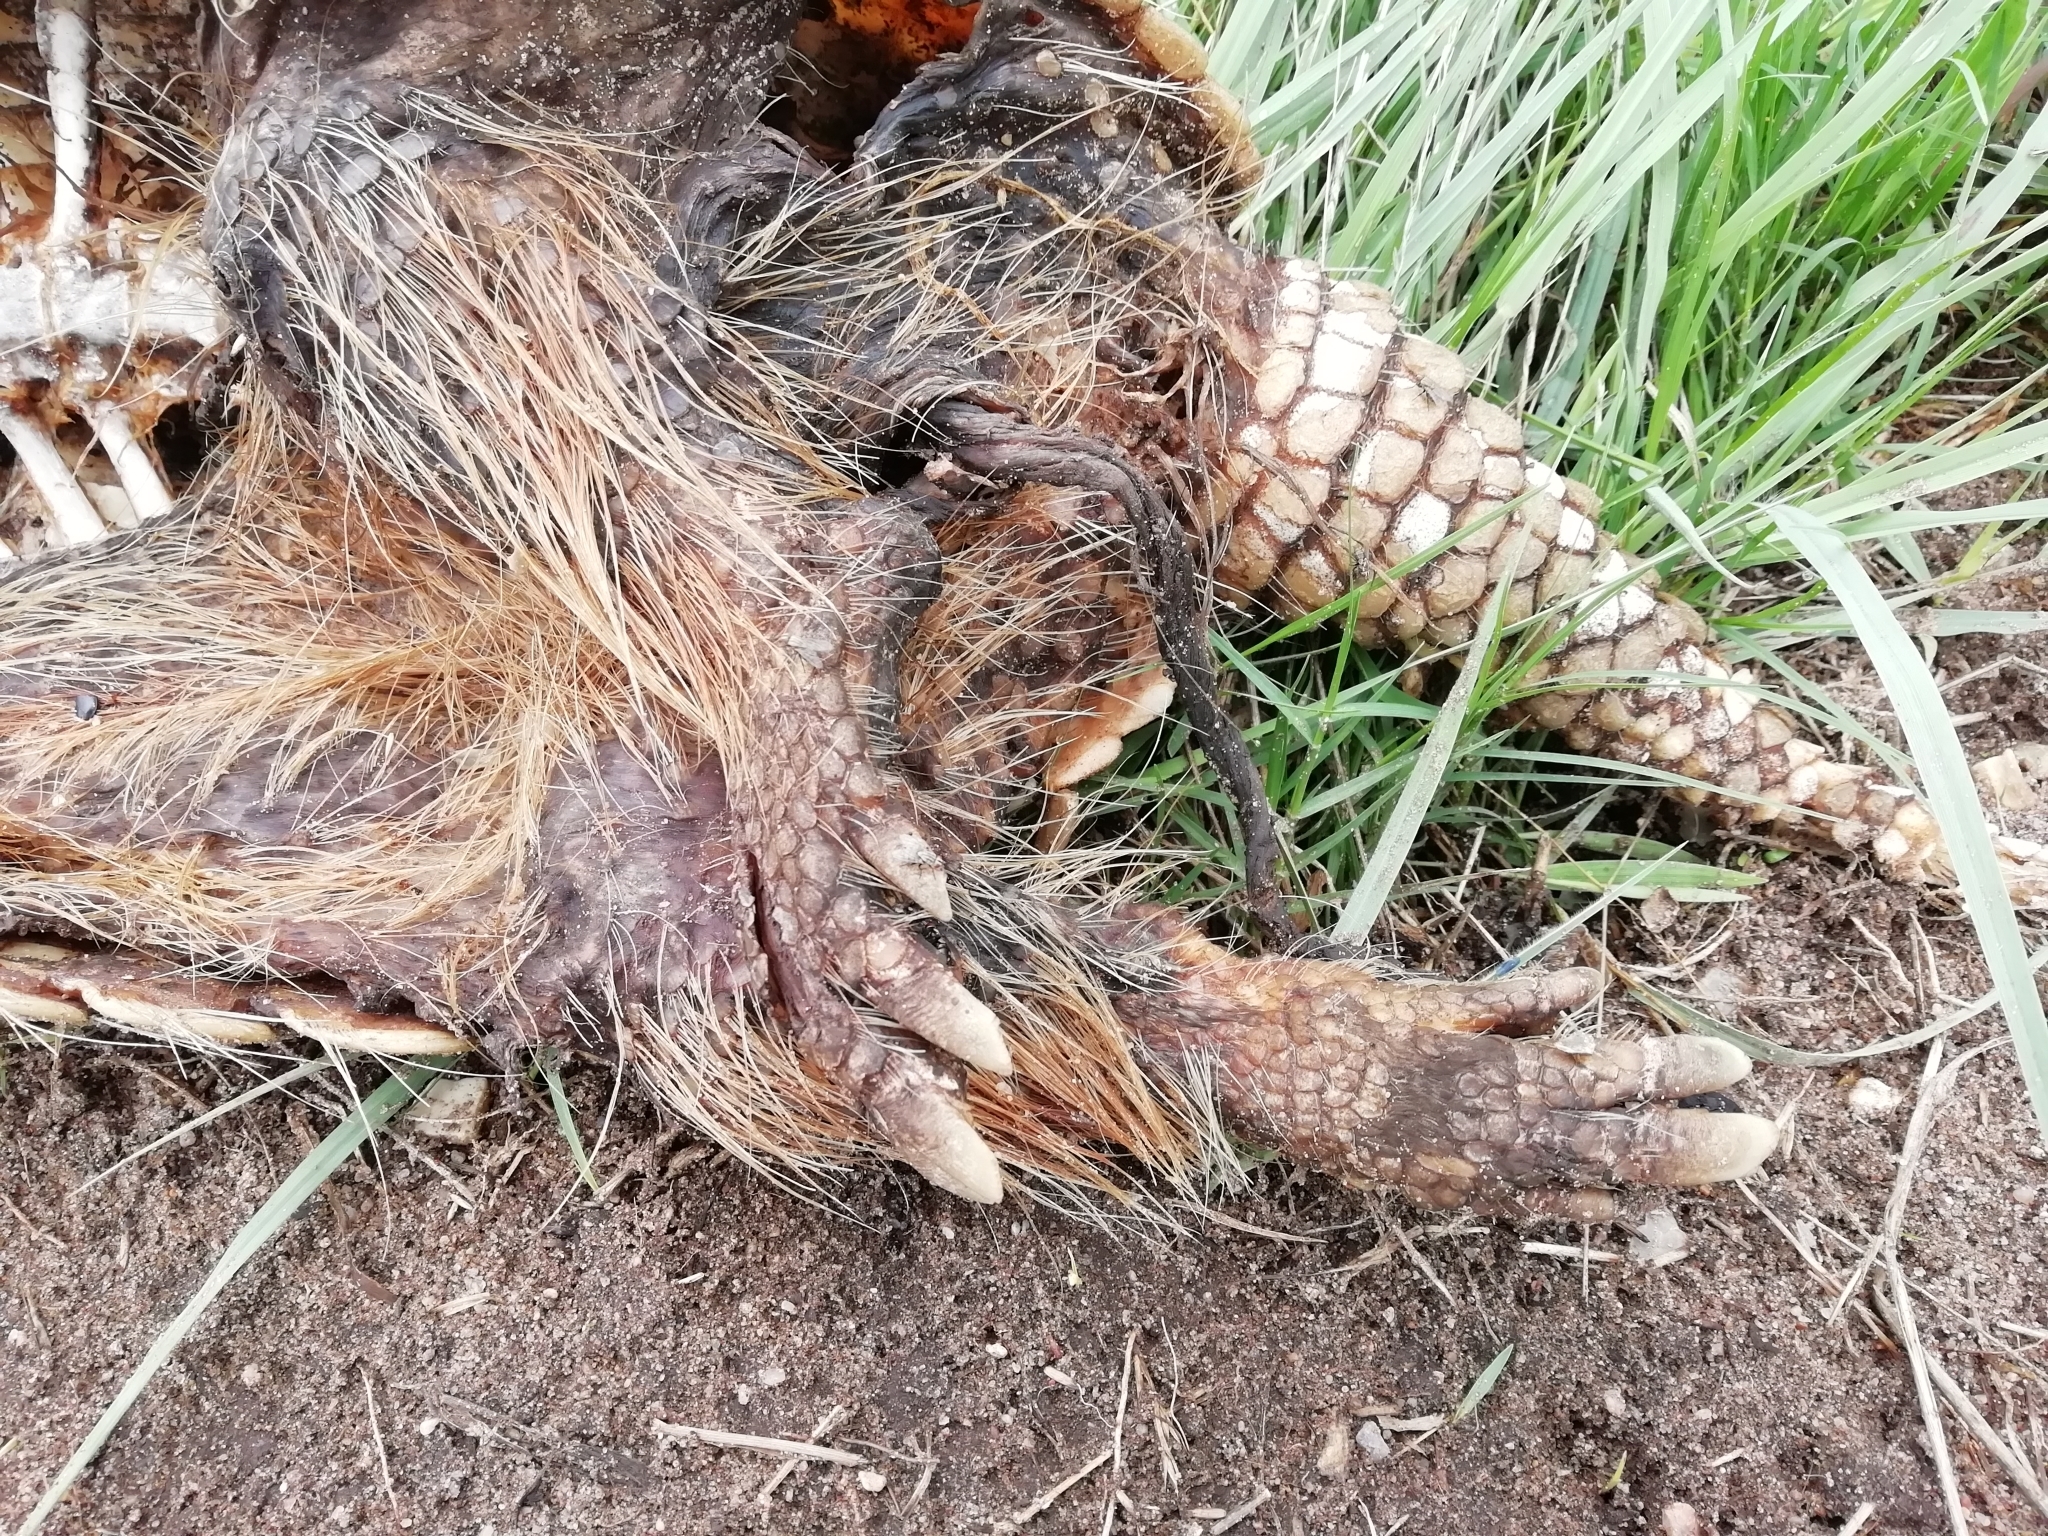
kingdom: Animalia
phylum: Chordata
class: Mammalia
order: Cingulata
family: Dasypodidae
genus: Euphractus
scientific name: Euphractus sexcinctus
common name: Six-banded armadillo
